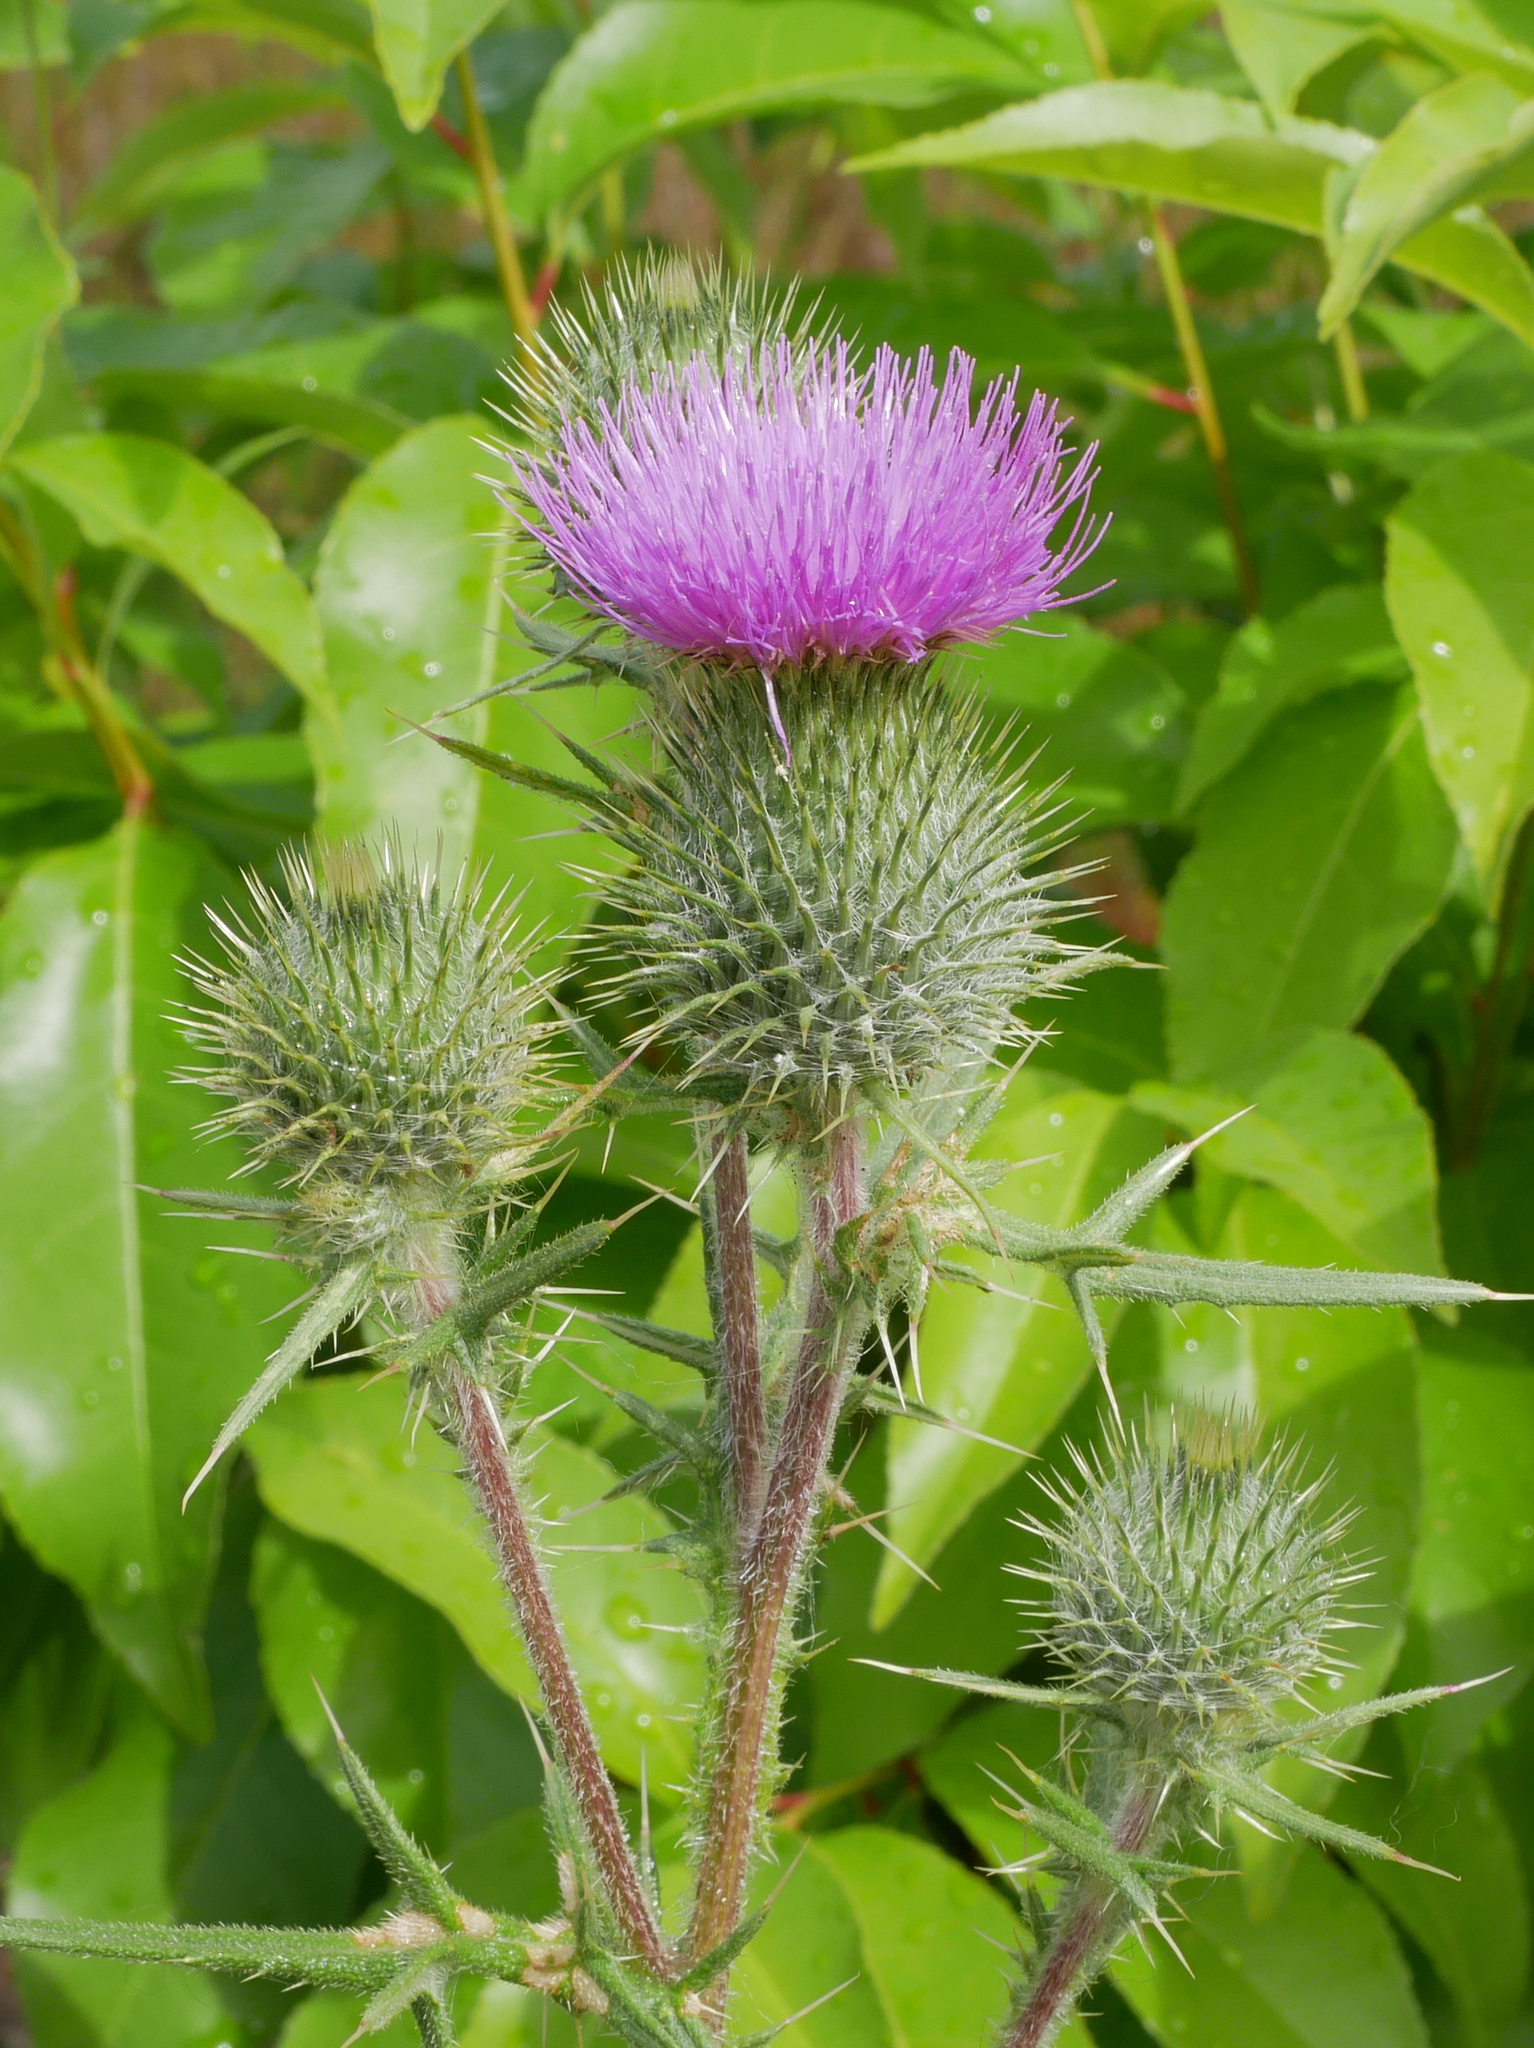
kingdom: Plantae
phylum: Tracheophyta
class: Magnoliopsida
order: Asterales
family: Asteraceae
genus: Cirsium
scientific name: Cirsium vulgare
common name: Bull thistle
